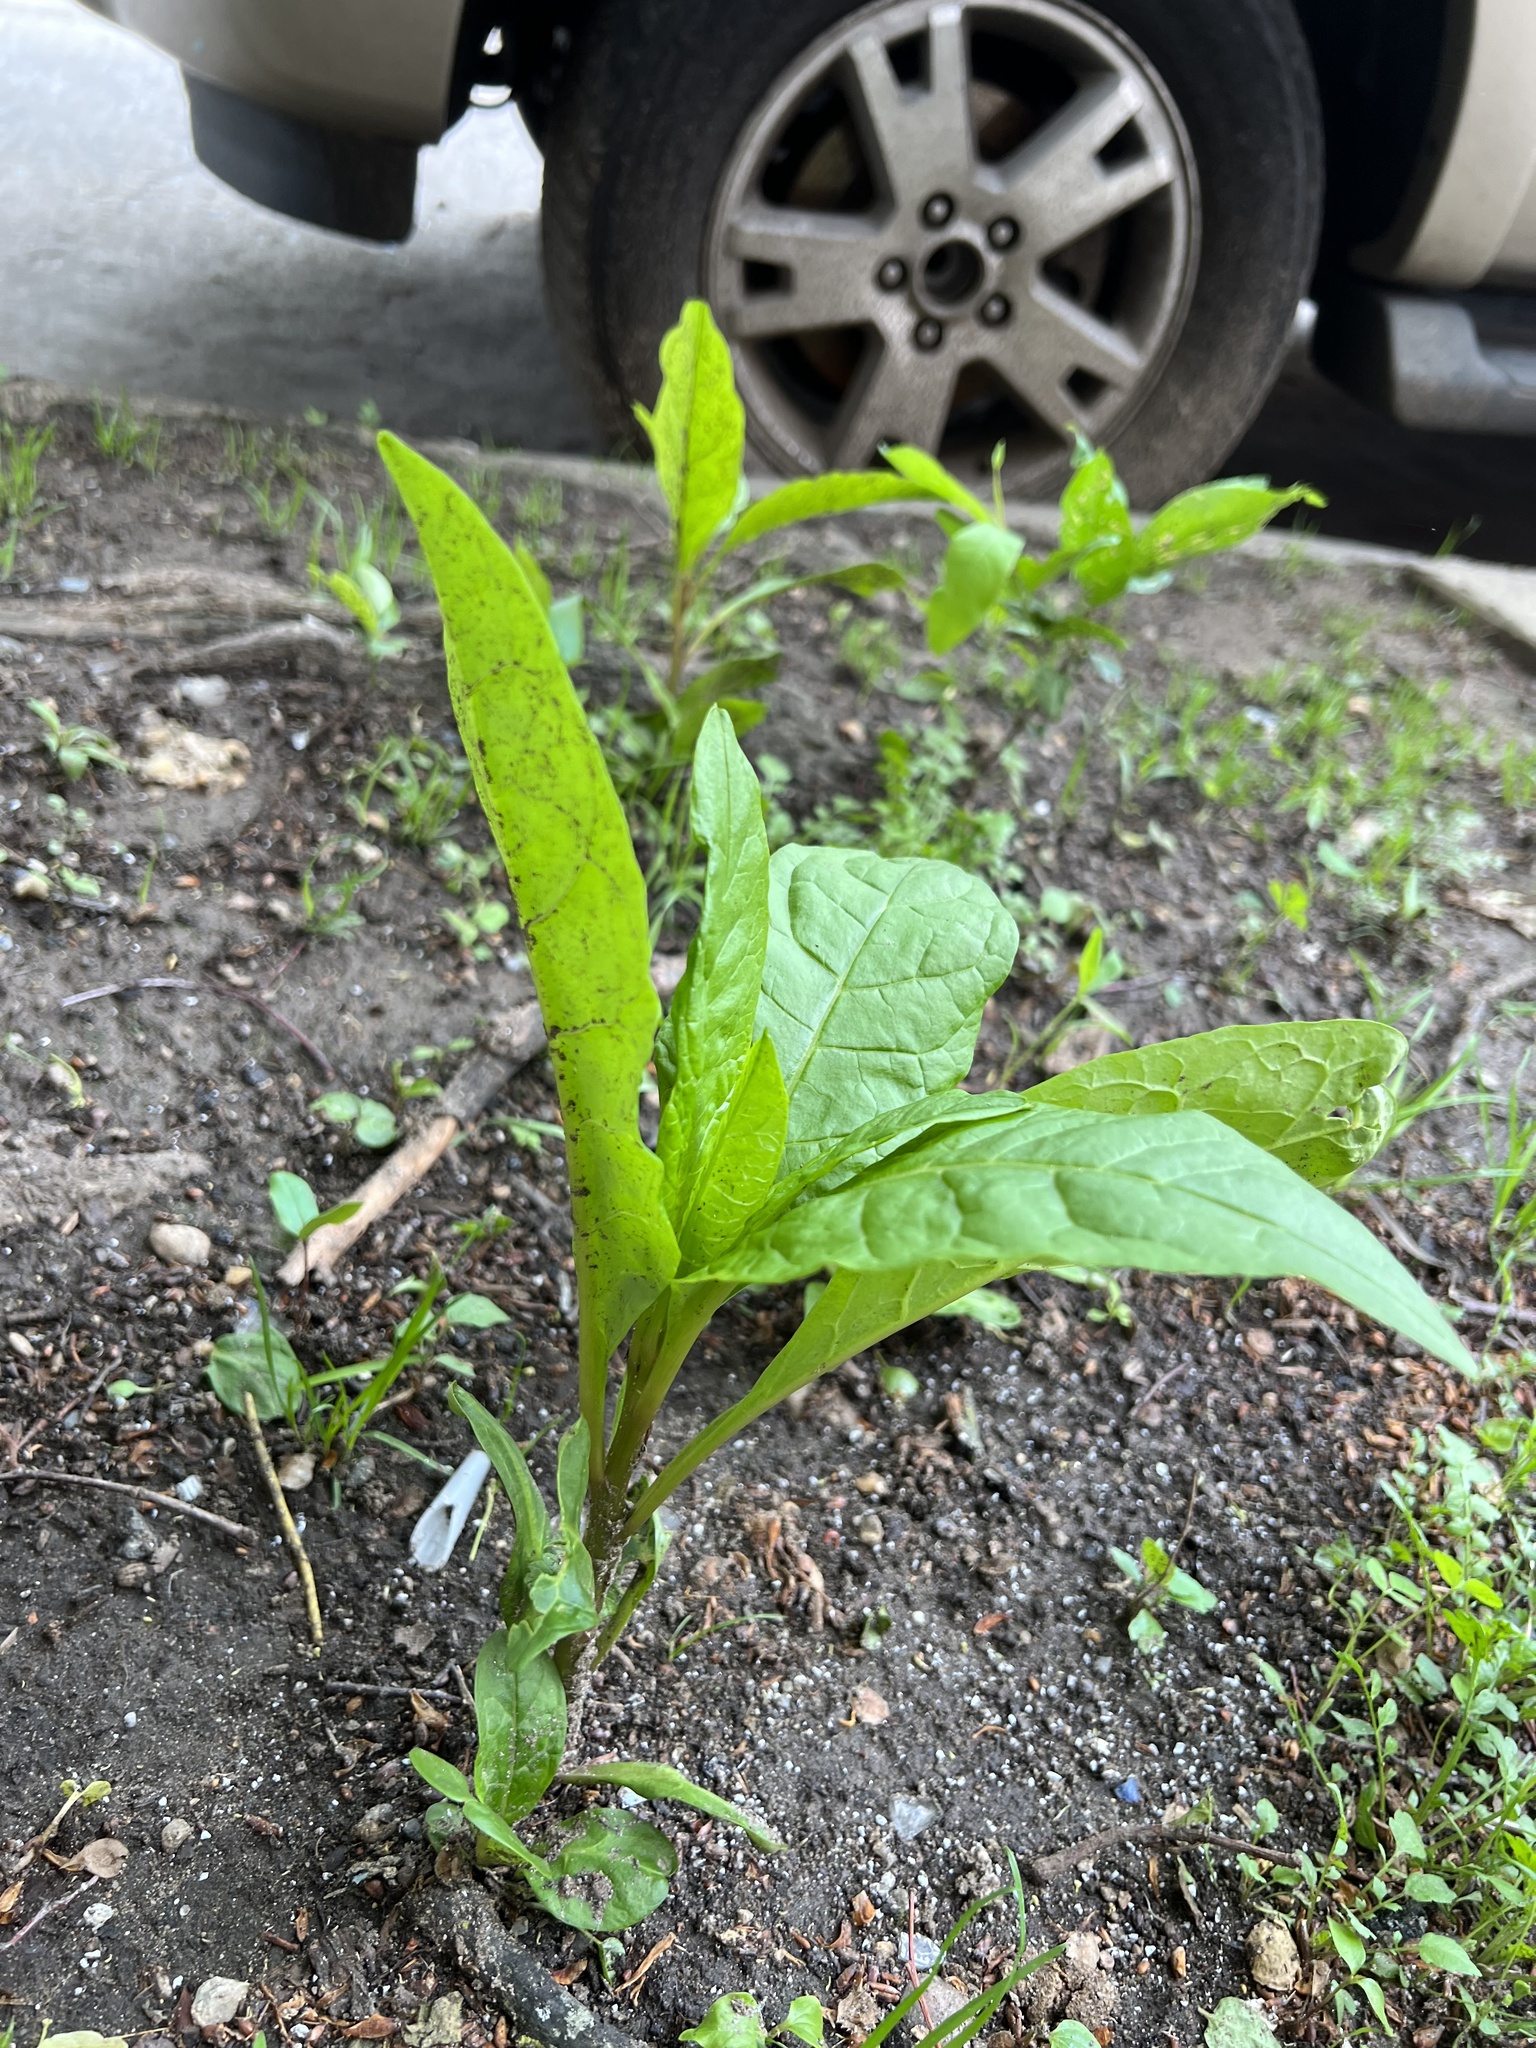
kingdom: Plantae
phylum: Tracheophyta
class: Magnoliopsida
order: Caryophyllales
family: Phytolaccaceae
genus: Phytolacca
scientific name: Phytolacca americana
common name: American pokeweed
